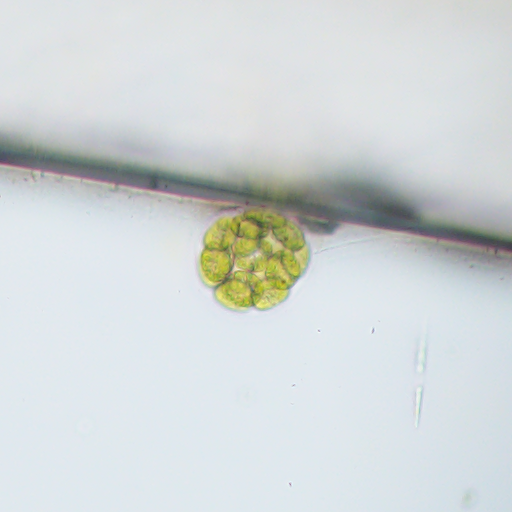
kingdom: Plantae
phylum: Chlorophyta
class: Chlorophyceae
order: Volvocales
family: Volvocaceae
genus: Volvulina
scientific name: Volvulina
